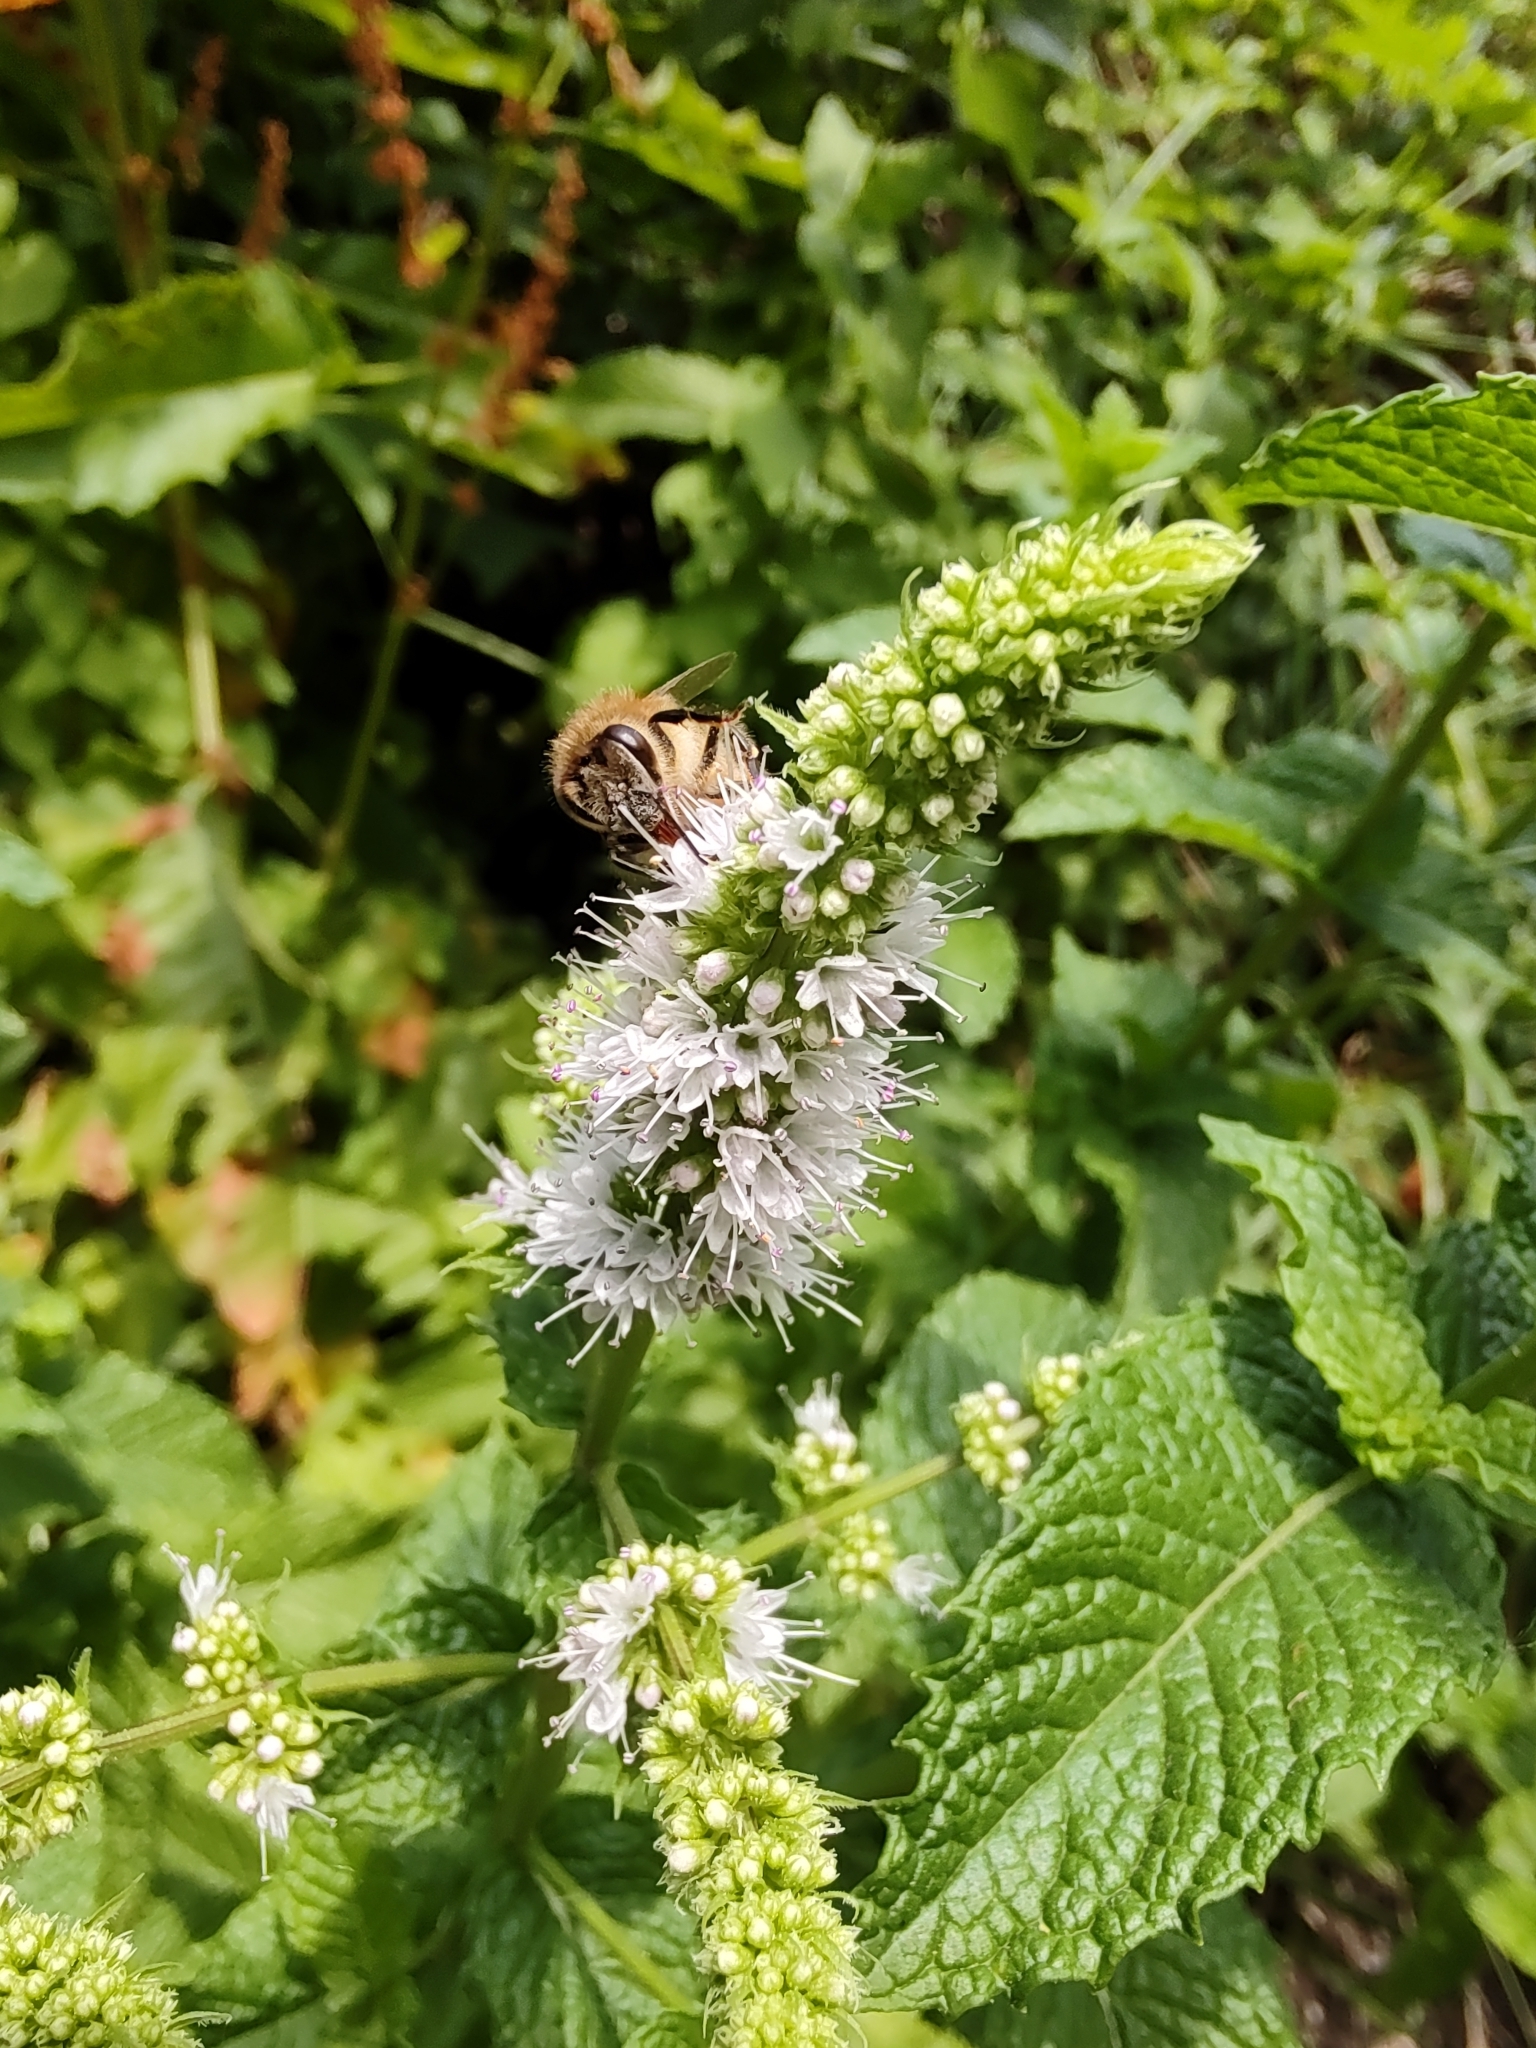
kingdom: Animalia
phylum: Arthropoda
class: Insecta
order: Hymenoptera
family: Apidae
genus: Apis
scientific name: Apis mellifera
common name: Honey bee
